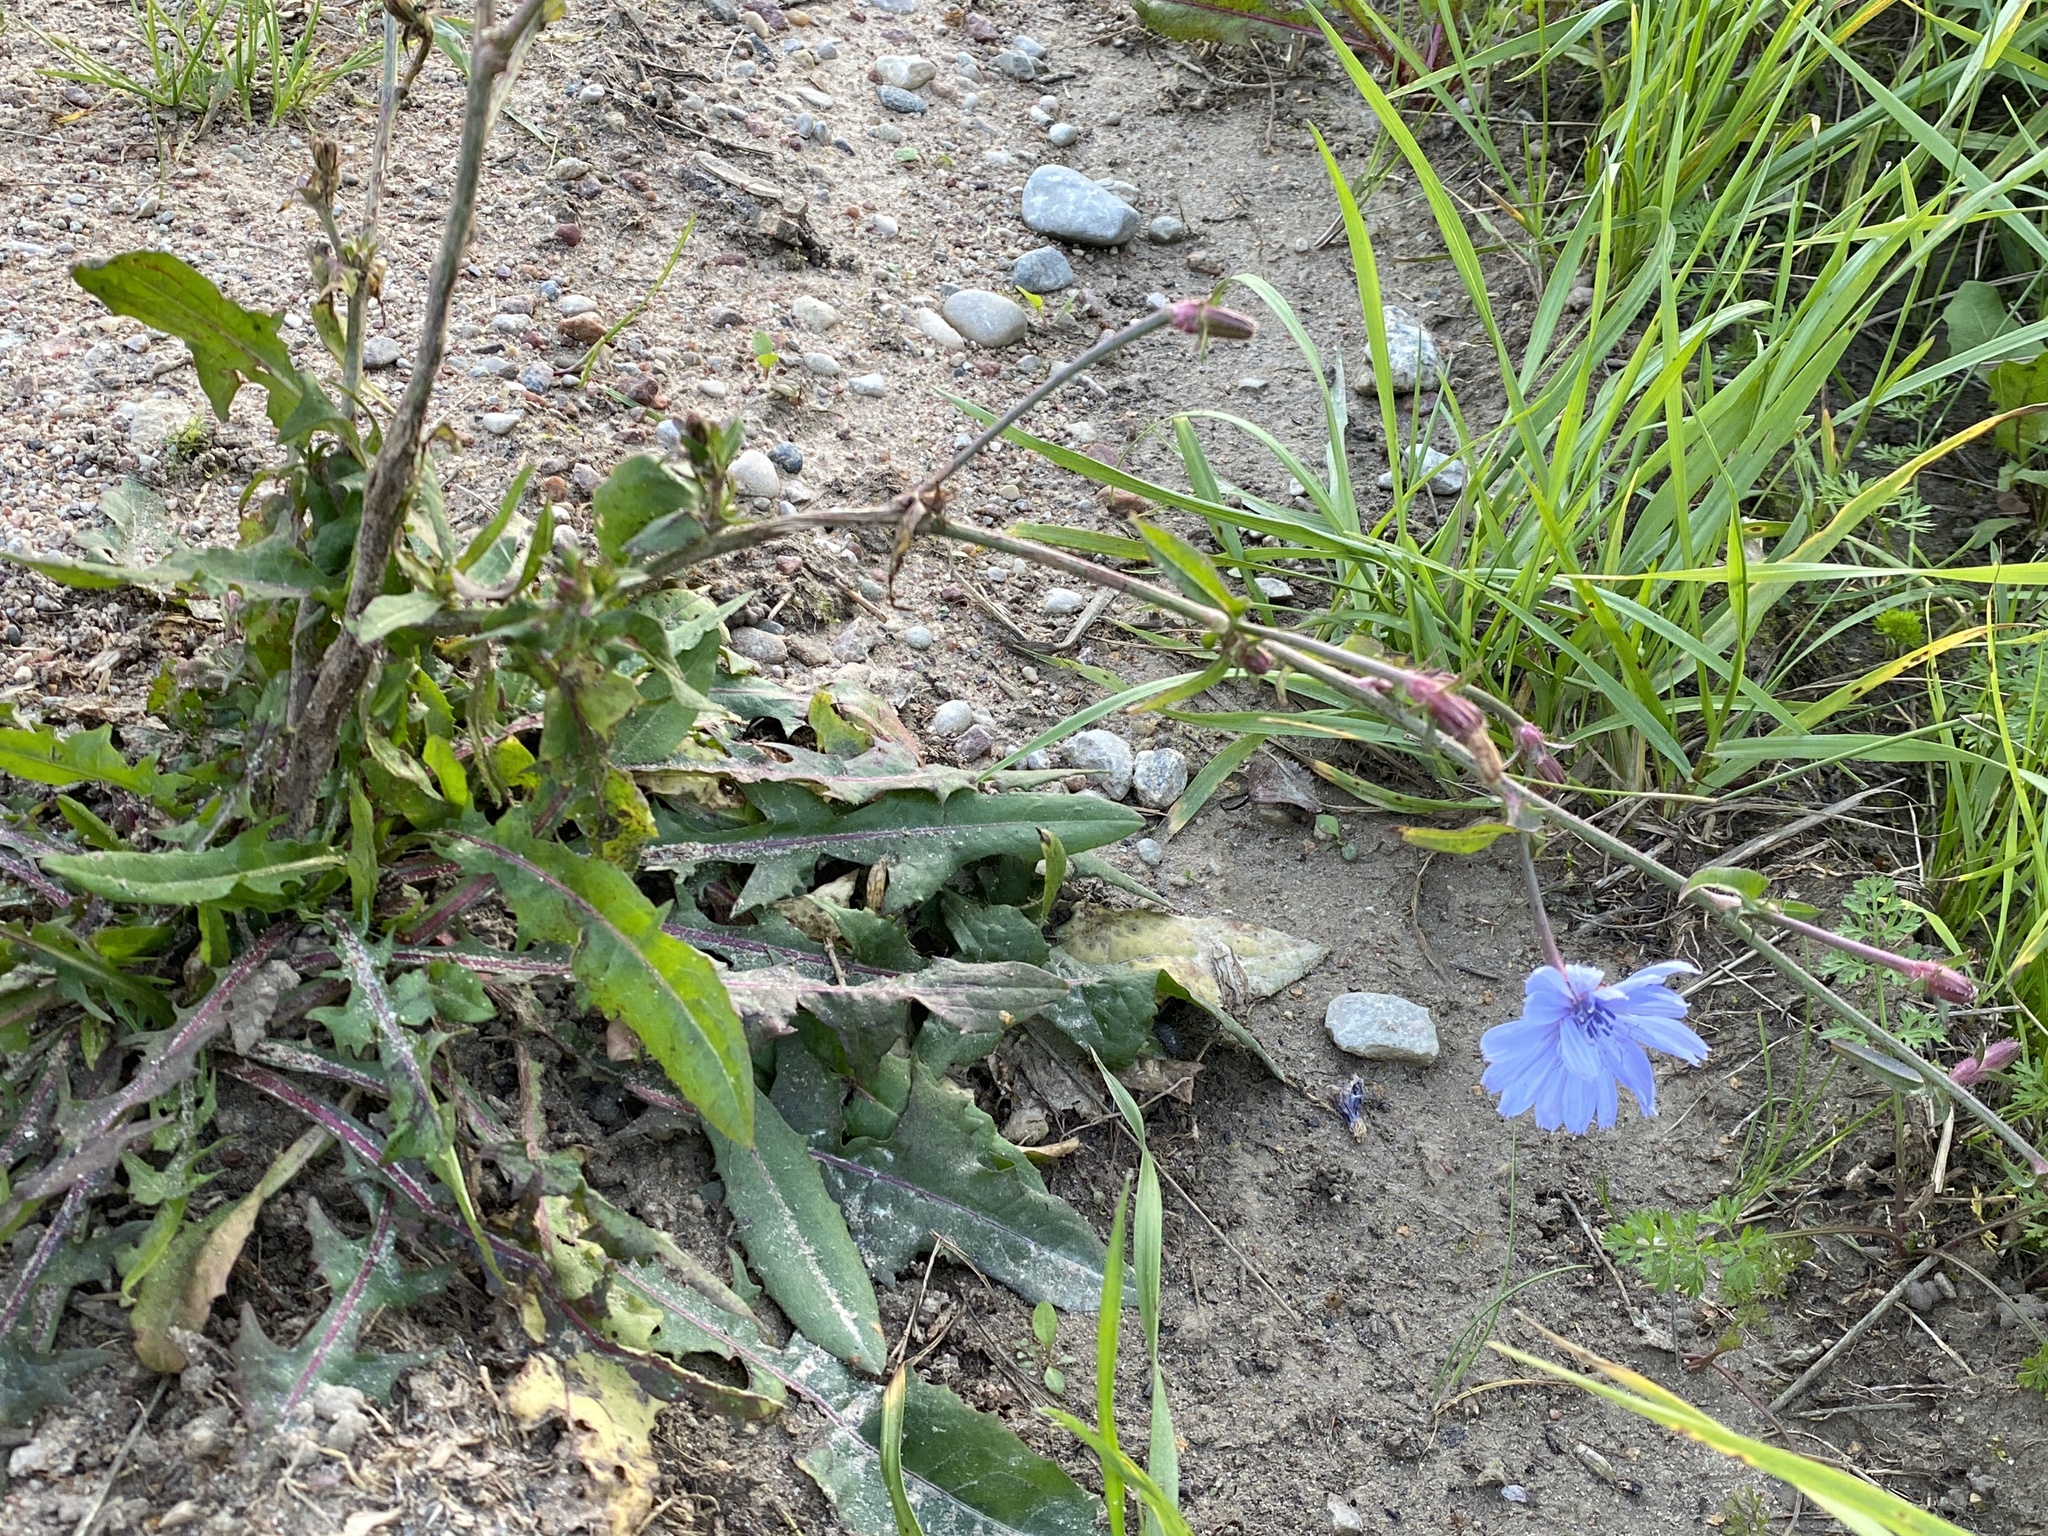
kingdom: Plantae
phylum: Tracheophyta
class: Magnoliopsida
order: Asterales
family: Asteraceae
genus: Cichorium
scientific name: Cichorium intybus
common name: Chicory
